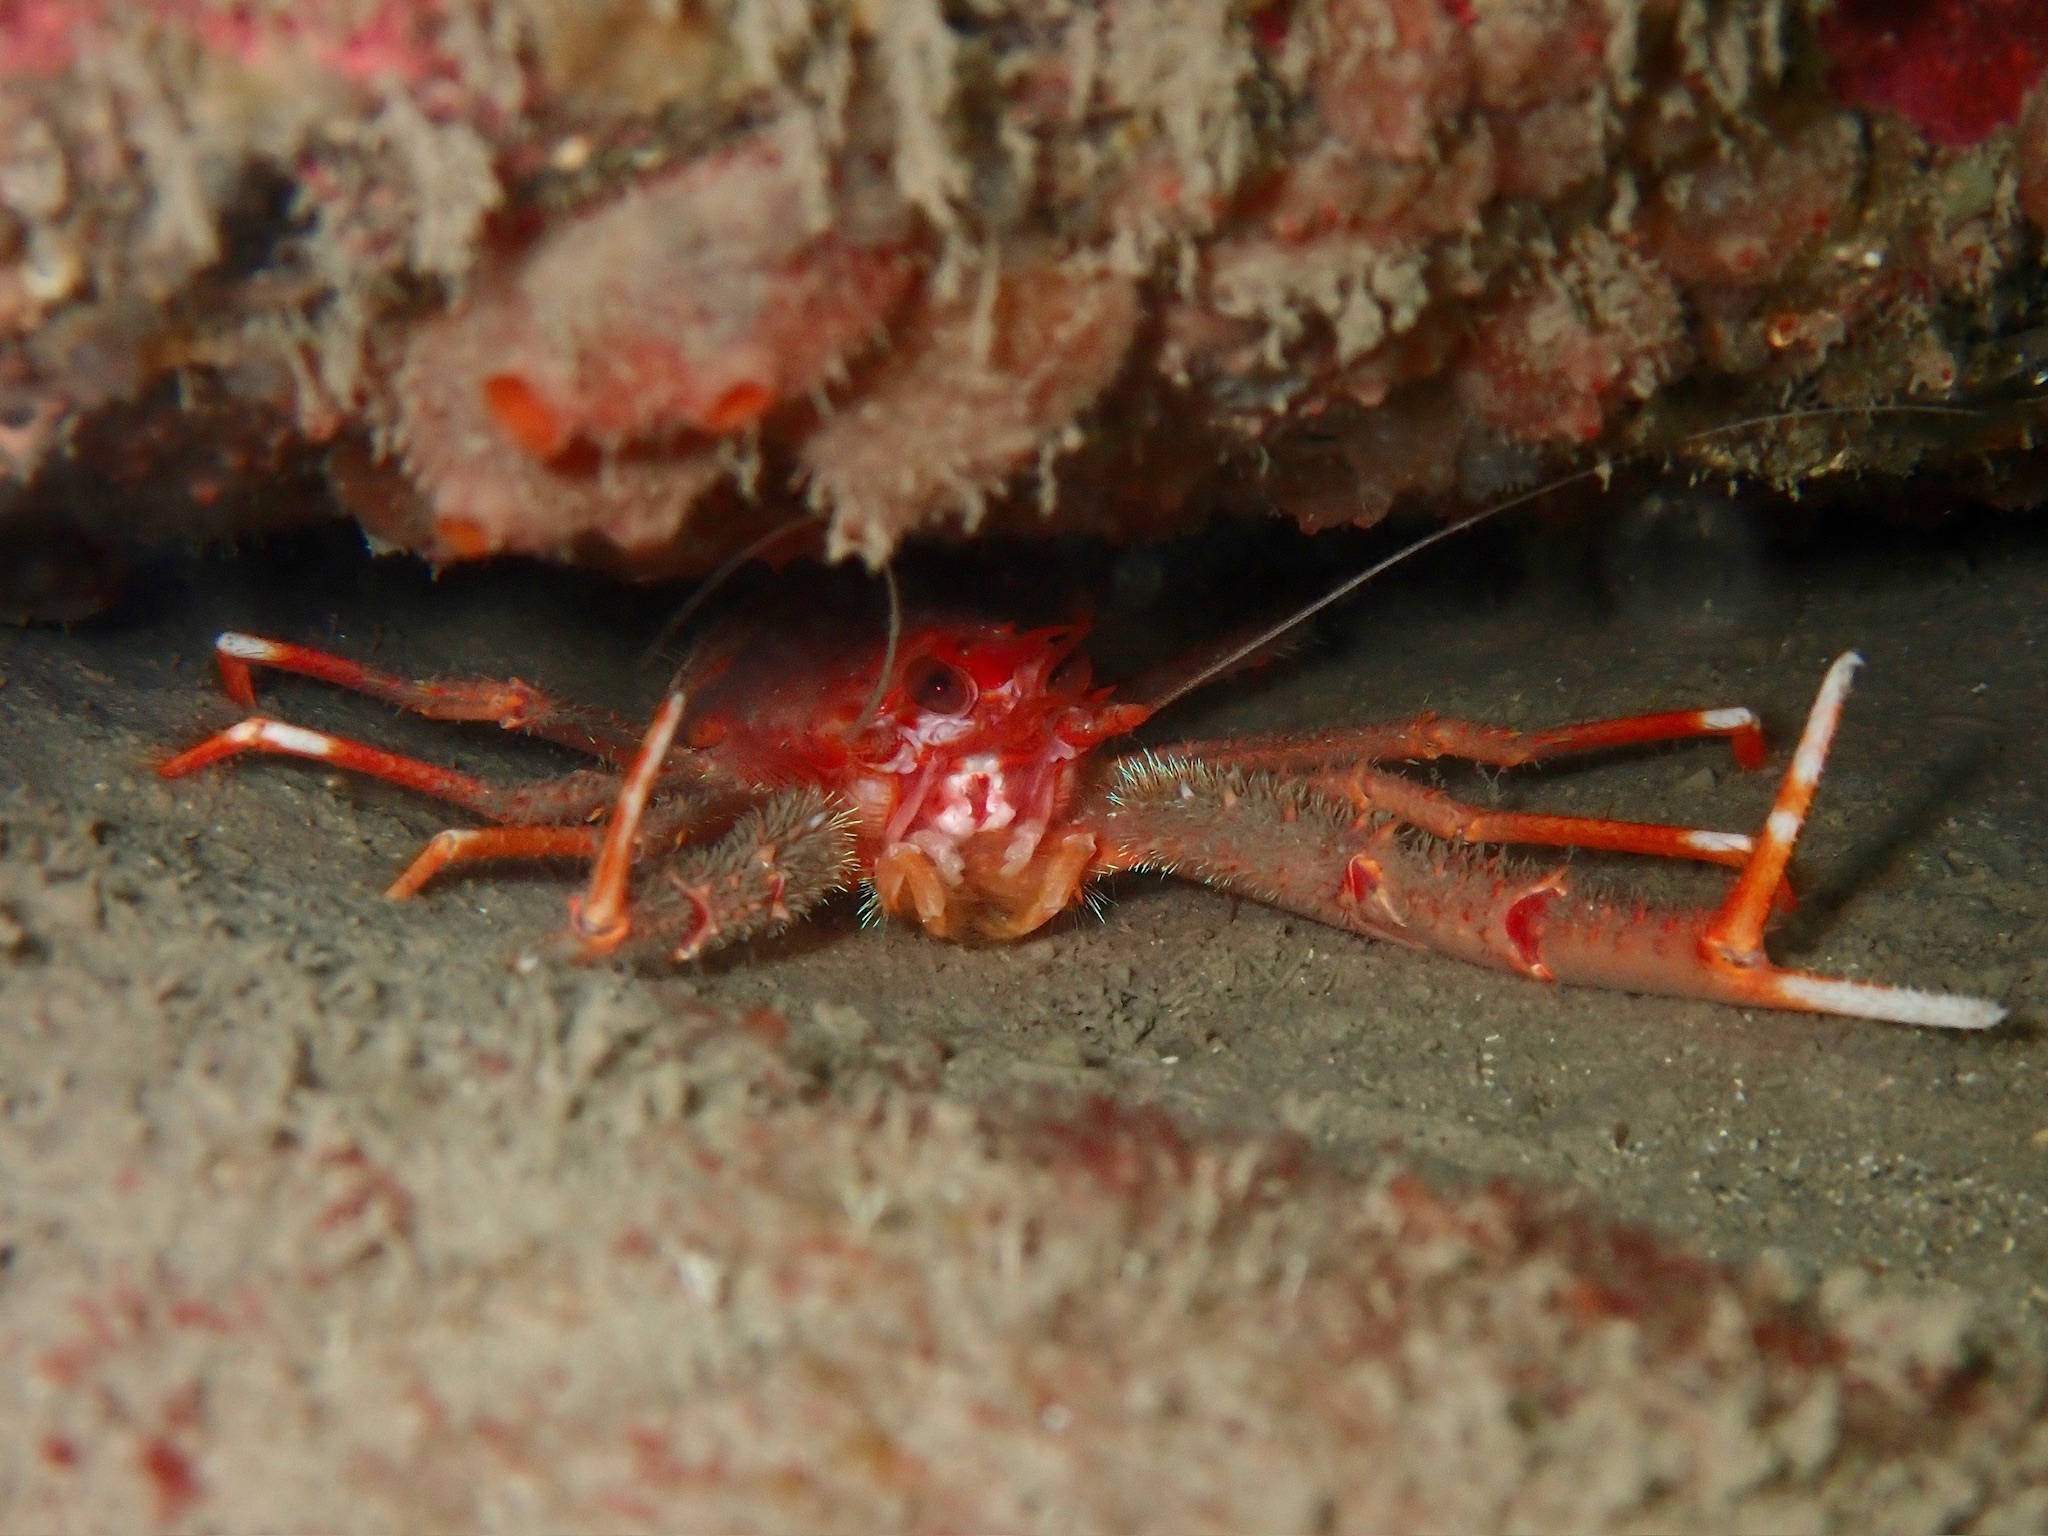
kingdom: Animalia
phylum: Arthropoda
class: Malacostraca
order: Decapoda
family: Munididae
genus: Munida
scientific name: Munida rugosa
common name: Rugose squat lobster
